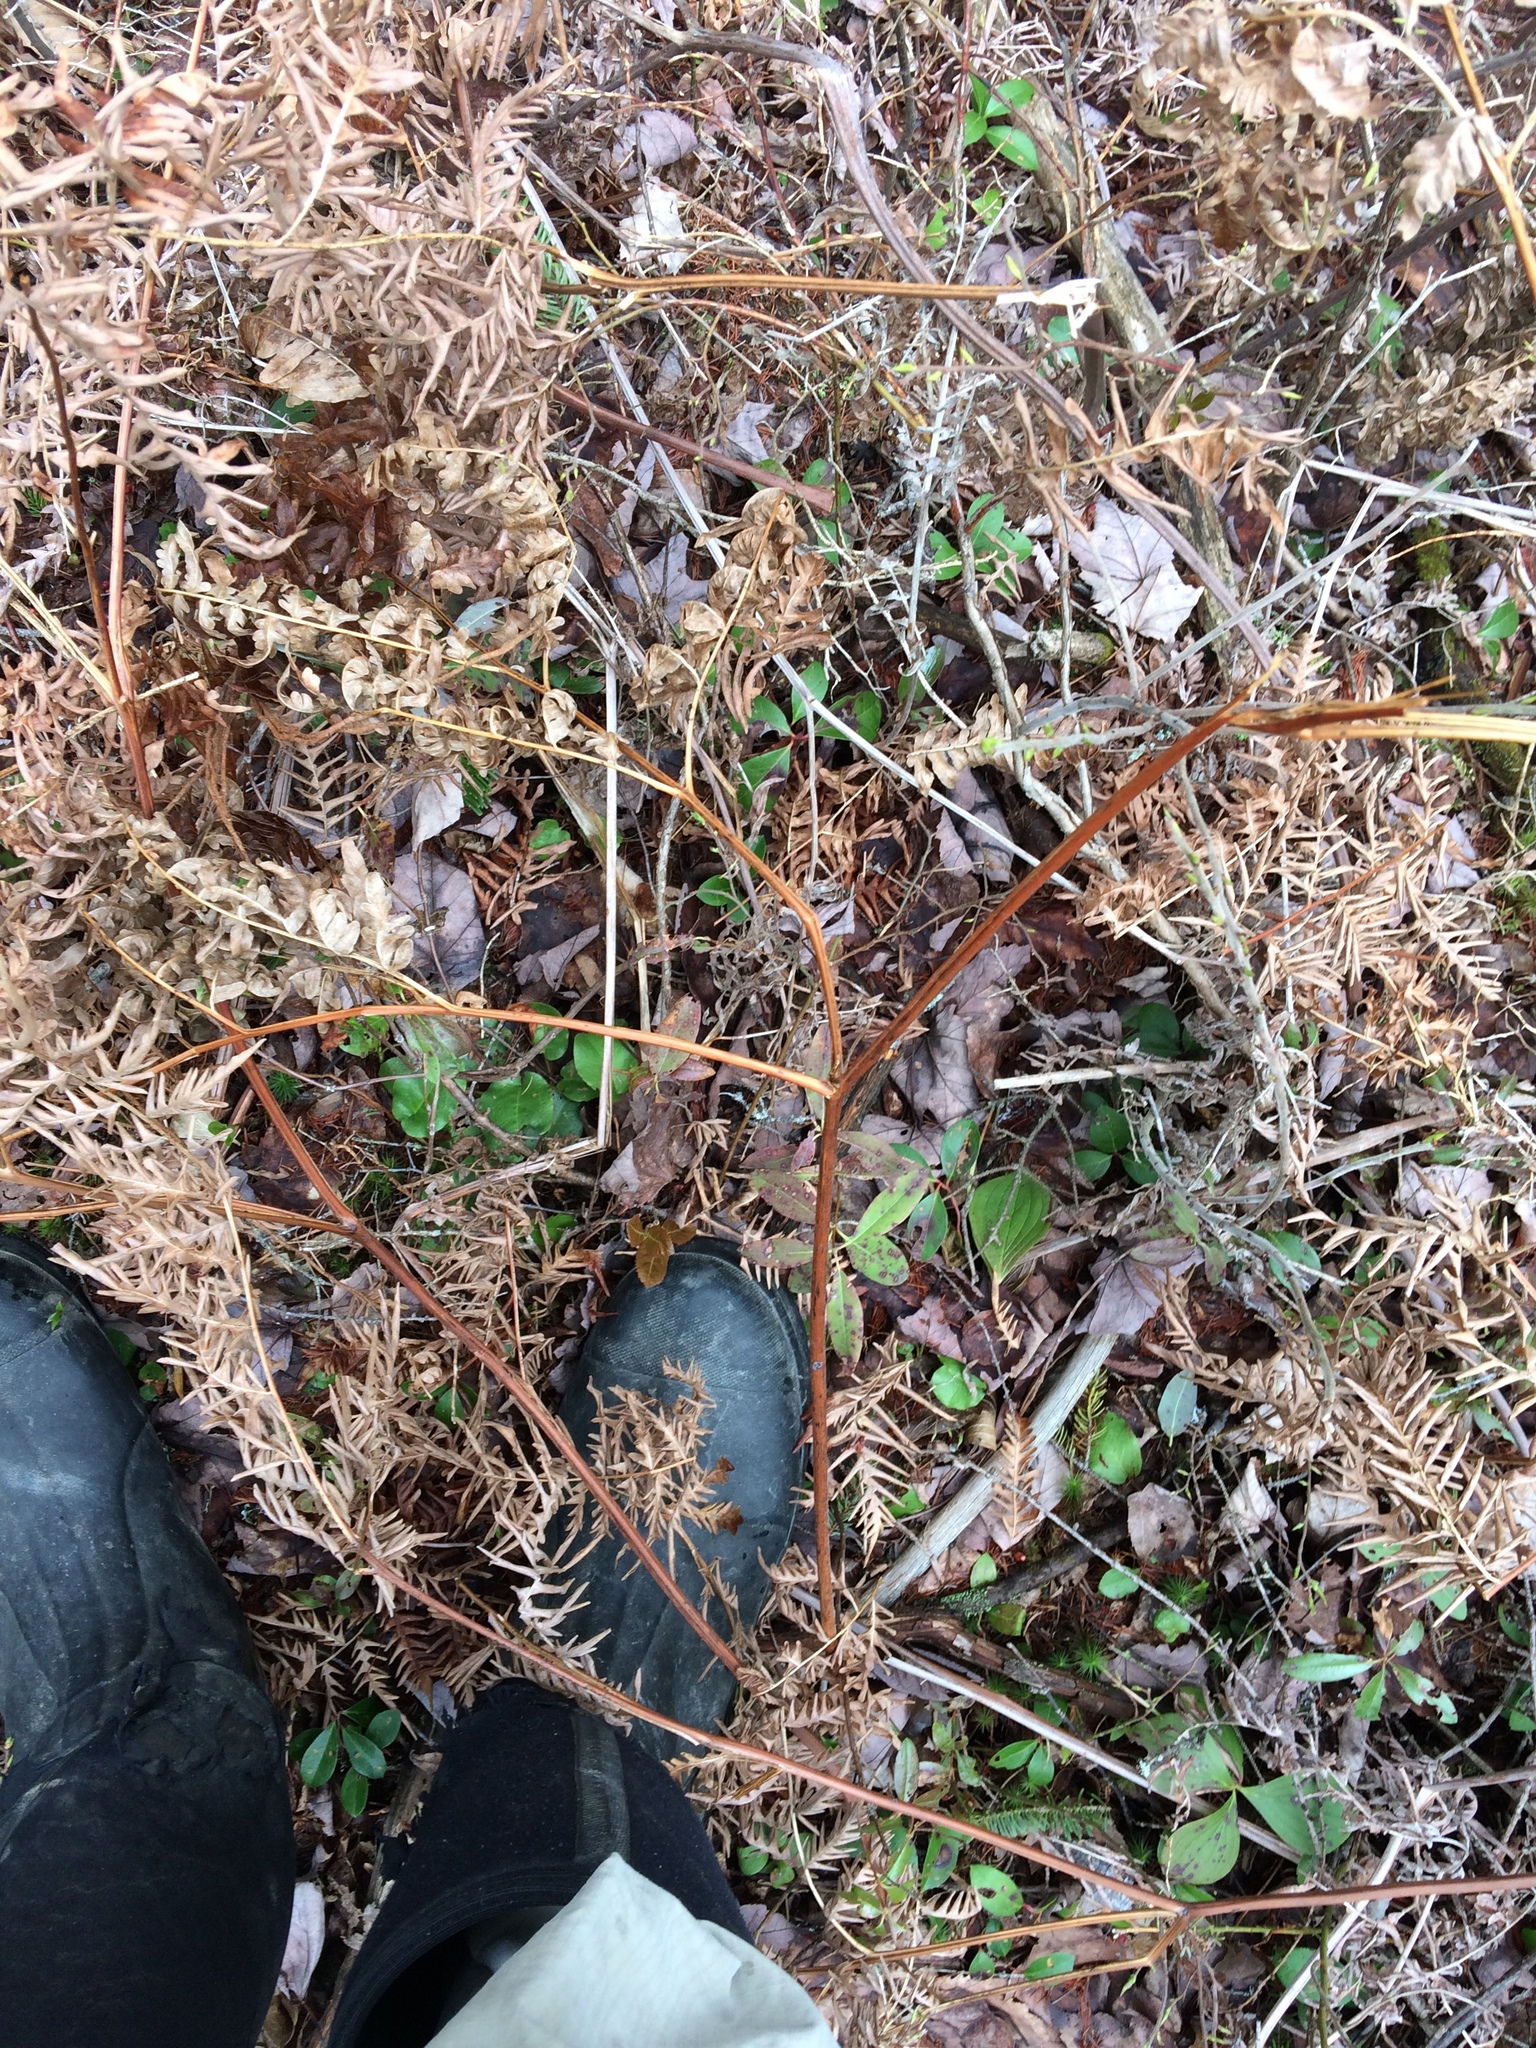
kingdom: Plantae
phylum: Tracheophyta
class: Polypodiopsida
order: Polypodiales
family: Dennstaedtiaceae
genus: Pteridium
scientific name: Pteridium aquilinum
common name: Bracken
